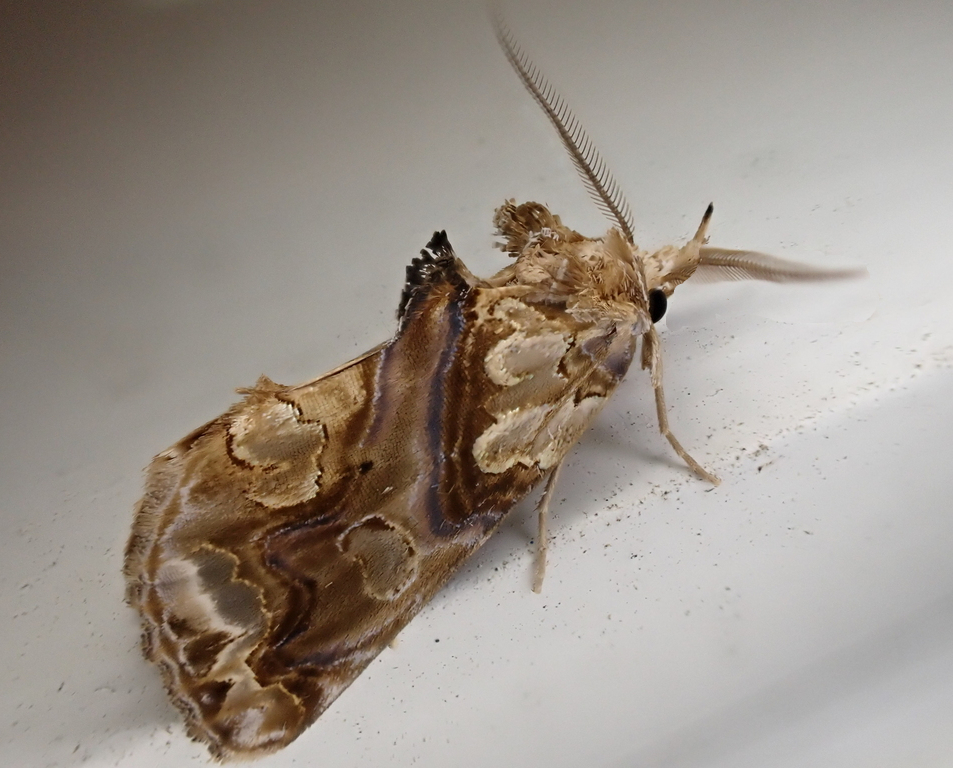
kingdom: Animalia
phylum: Arthropoda
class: Insecta
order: Lepidoptera
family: Erebidae
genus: Plusiodonta
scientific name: Plusiodonta compressipalpis
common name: Moonseed moth
